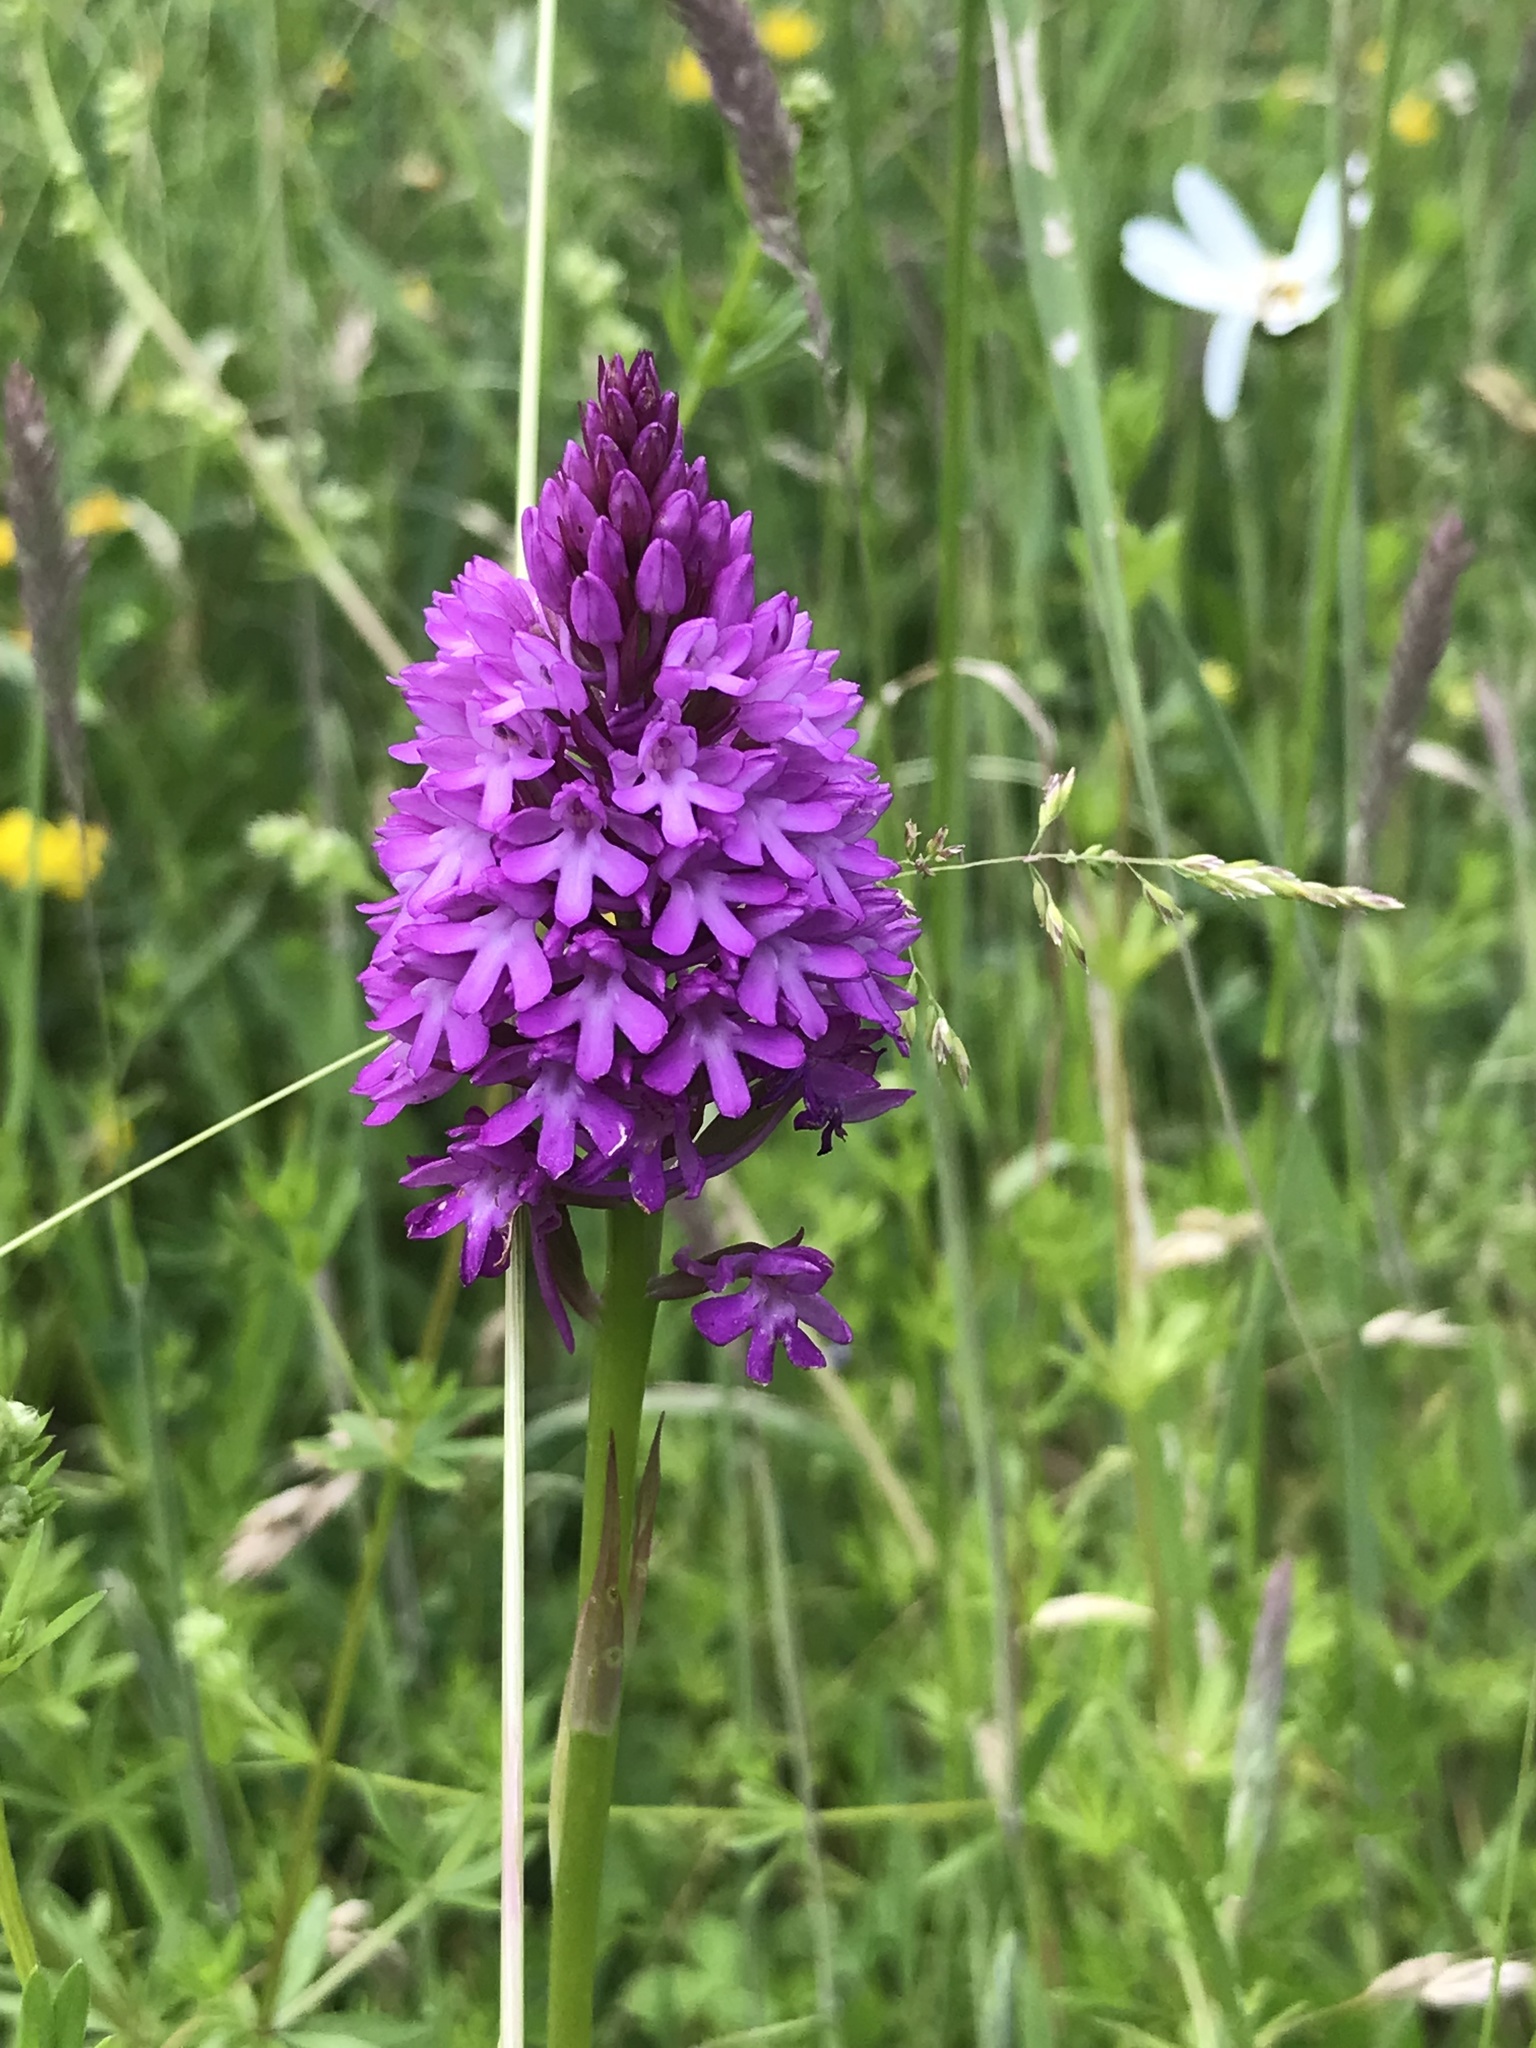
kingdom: Plantae
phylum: Tracheophyta
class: Liliopsida
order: Asparagales
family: Orchidaceae
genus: Anacamptis
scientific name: Anacamptis pyramidalis
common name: Pyramidal orchid
